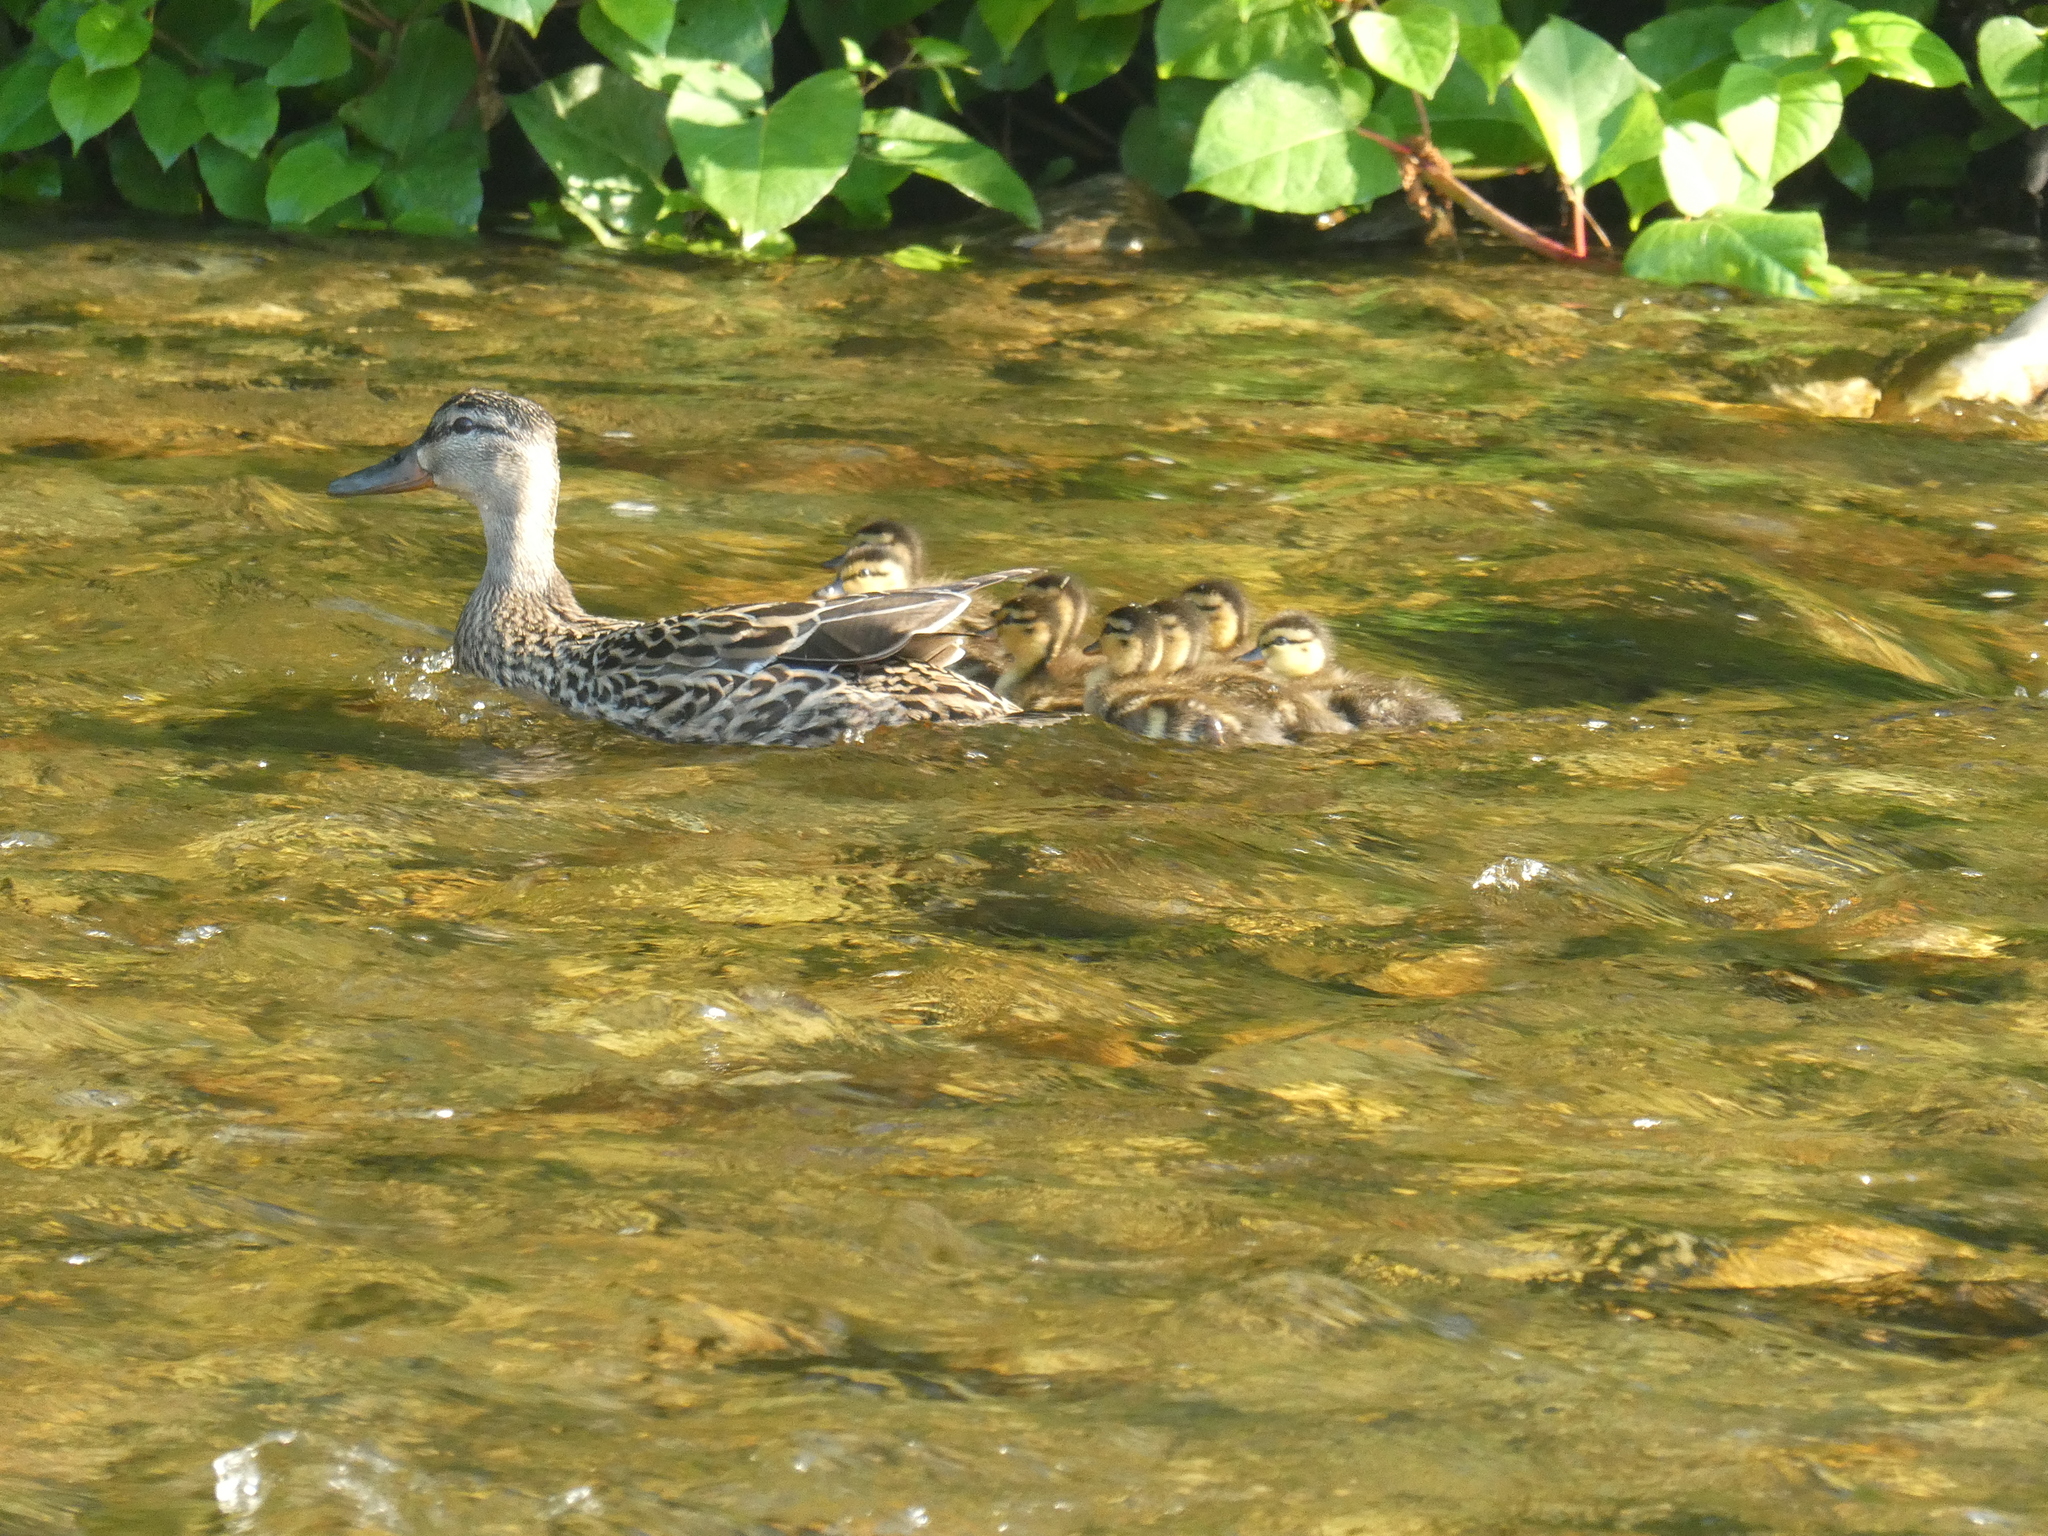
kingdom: Animalia
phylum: Chordata
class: Aves
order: Anseriformes
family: Anatidae
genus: Anas
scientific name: Anas platyrhynchos
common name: Mallard
